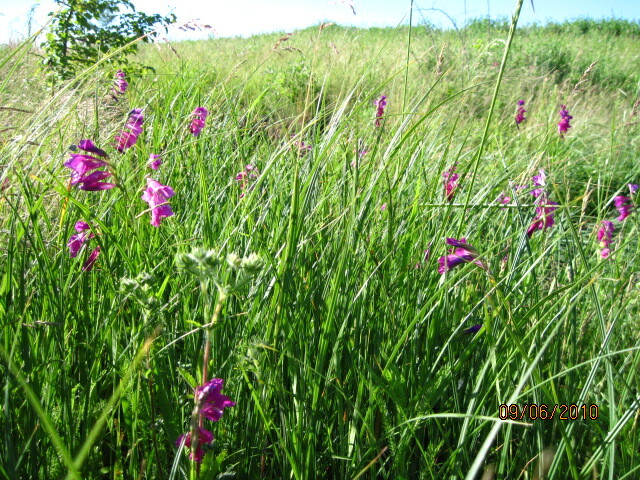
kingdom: Plantae
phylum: Tracheophyta
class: Liliopsida
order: Asparagales
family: Iridaceae
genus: Gladiolus
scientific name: Gladiolus tenuis
